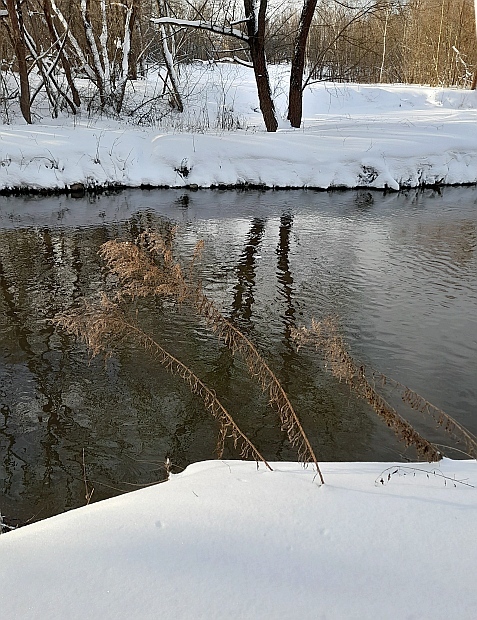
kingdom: Plantae
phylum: Tracheophyta
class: Magnoliopsida
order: Asterales
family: Asteraceae
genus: Solidago
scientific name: Solidago gigantea
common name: Giant goldenrod
